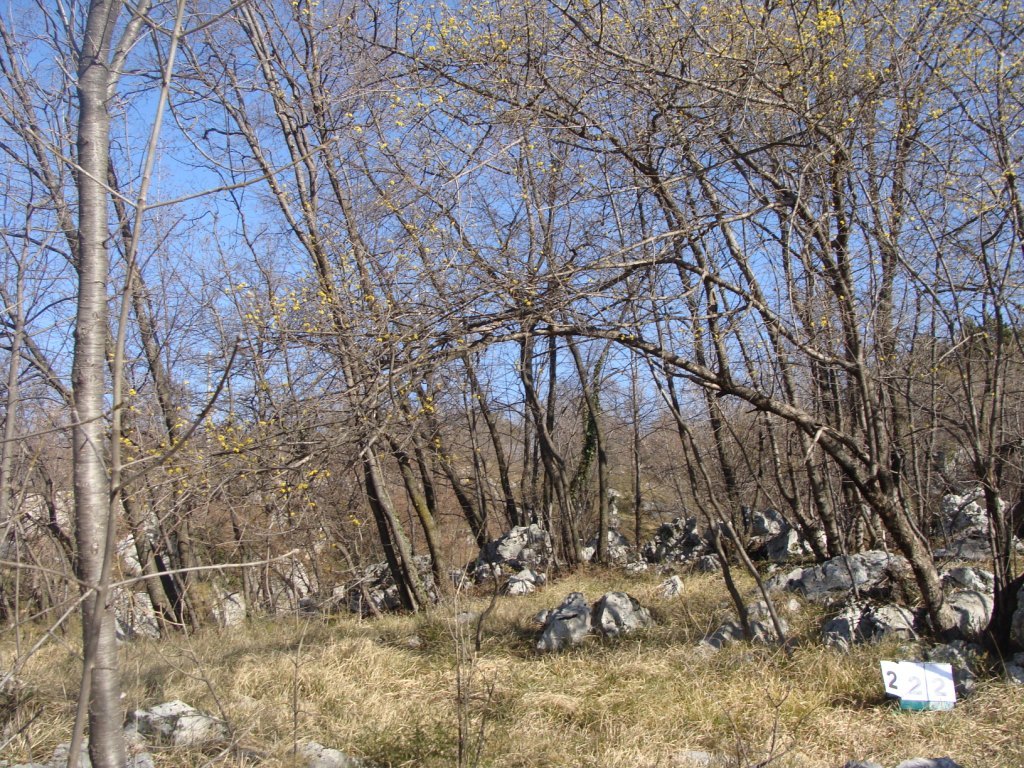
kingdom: Plantae
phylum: Tracheophyta
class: Magnoliopsida
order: Cornales
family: Cornaceae
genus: Cornus
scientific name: Cornus mas
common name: Cornelian-cherry
